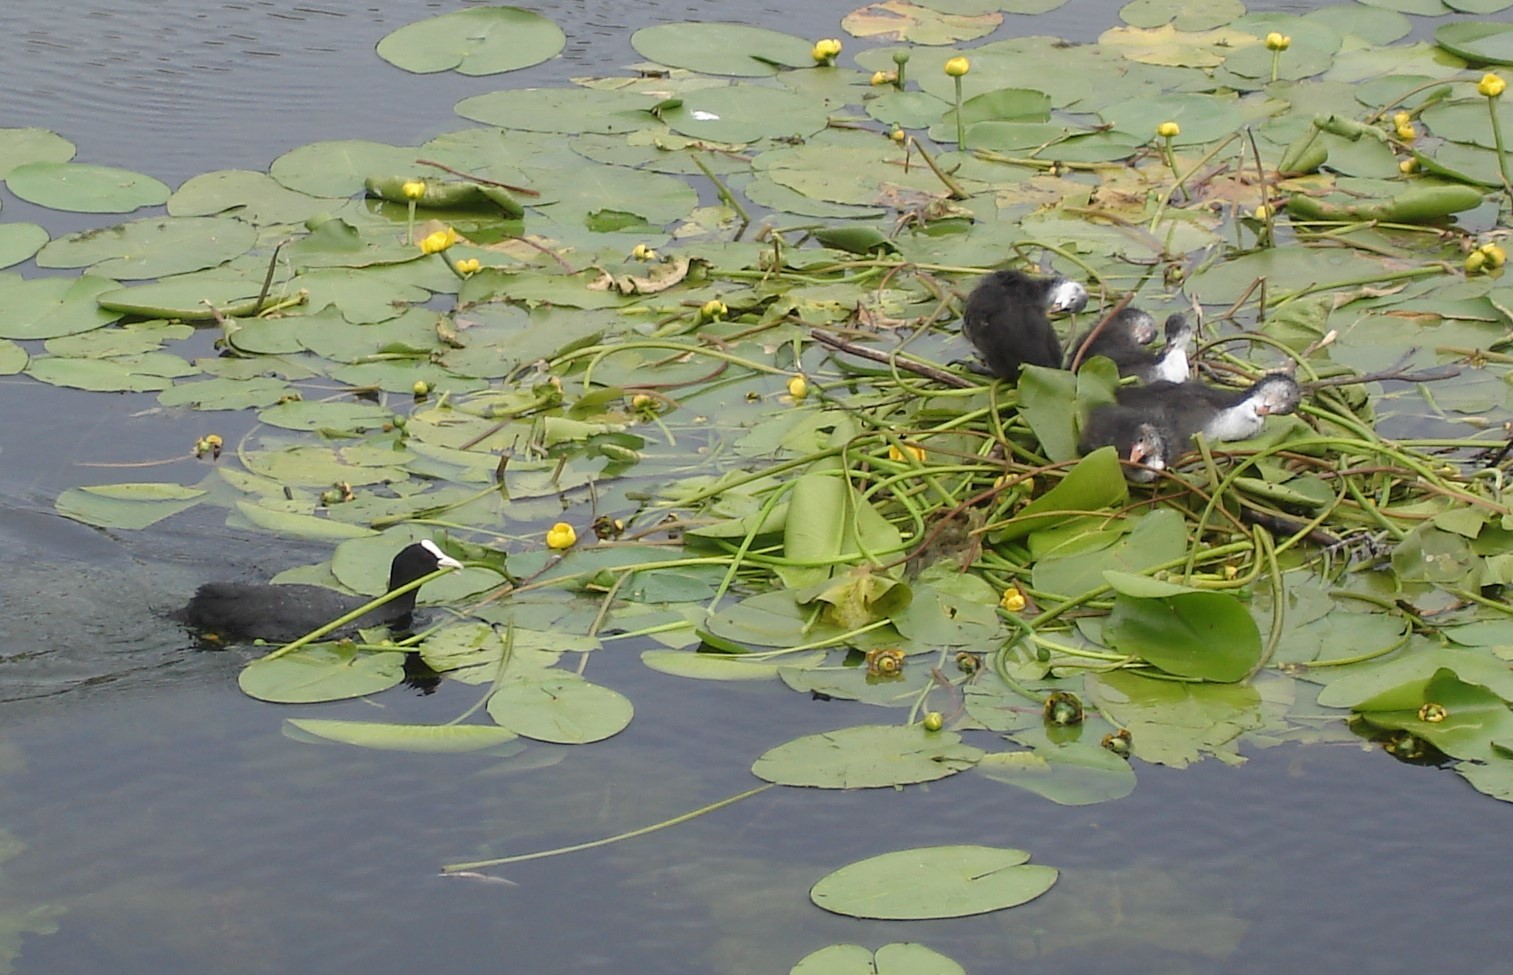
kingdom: Animalia
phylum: Chordata
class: Aves
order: Gruiformes
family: Rallidae
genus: Fulica
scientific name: Fulica atra
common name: Eurasian coot
